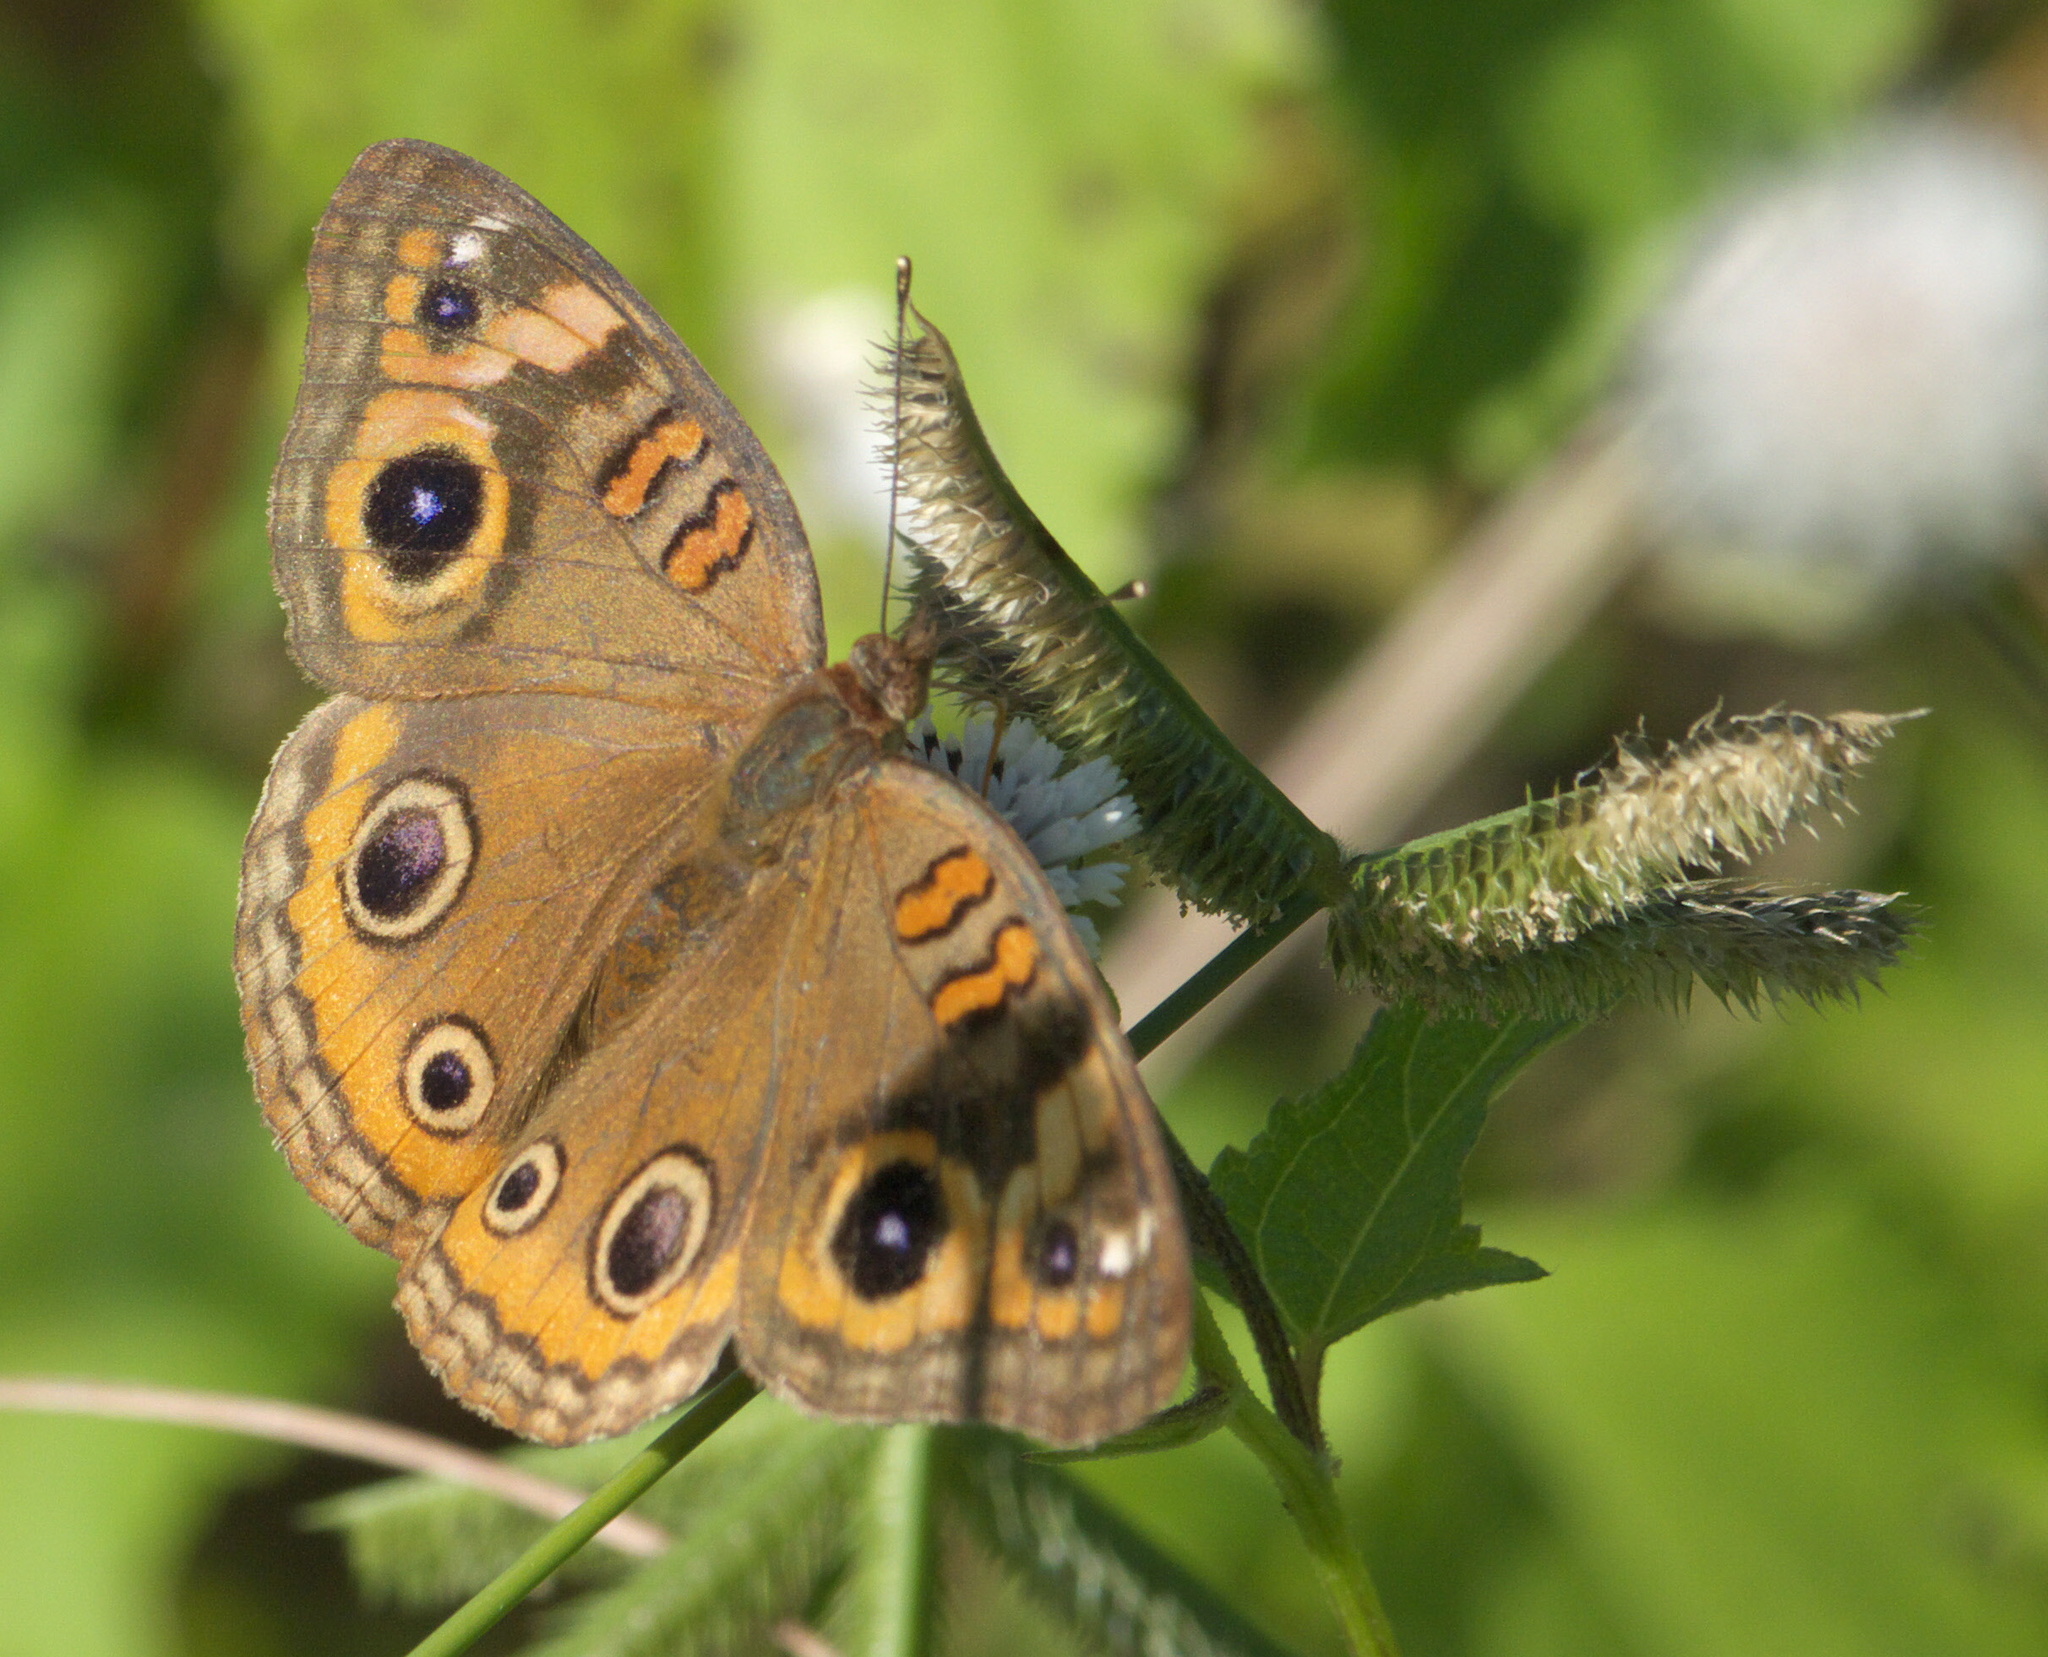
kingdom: Animalia
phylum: Arthropoda
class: Insecta
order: Lepidoptera
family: Nymphalidae
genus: Junonia
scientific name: Junonia neildi
